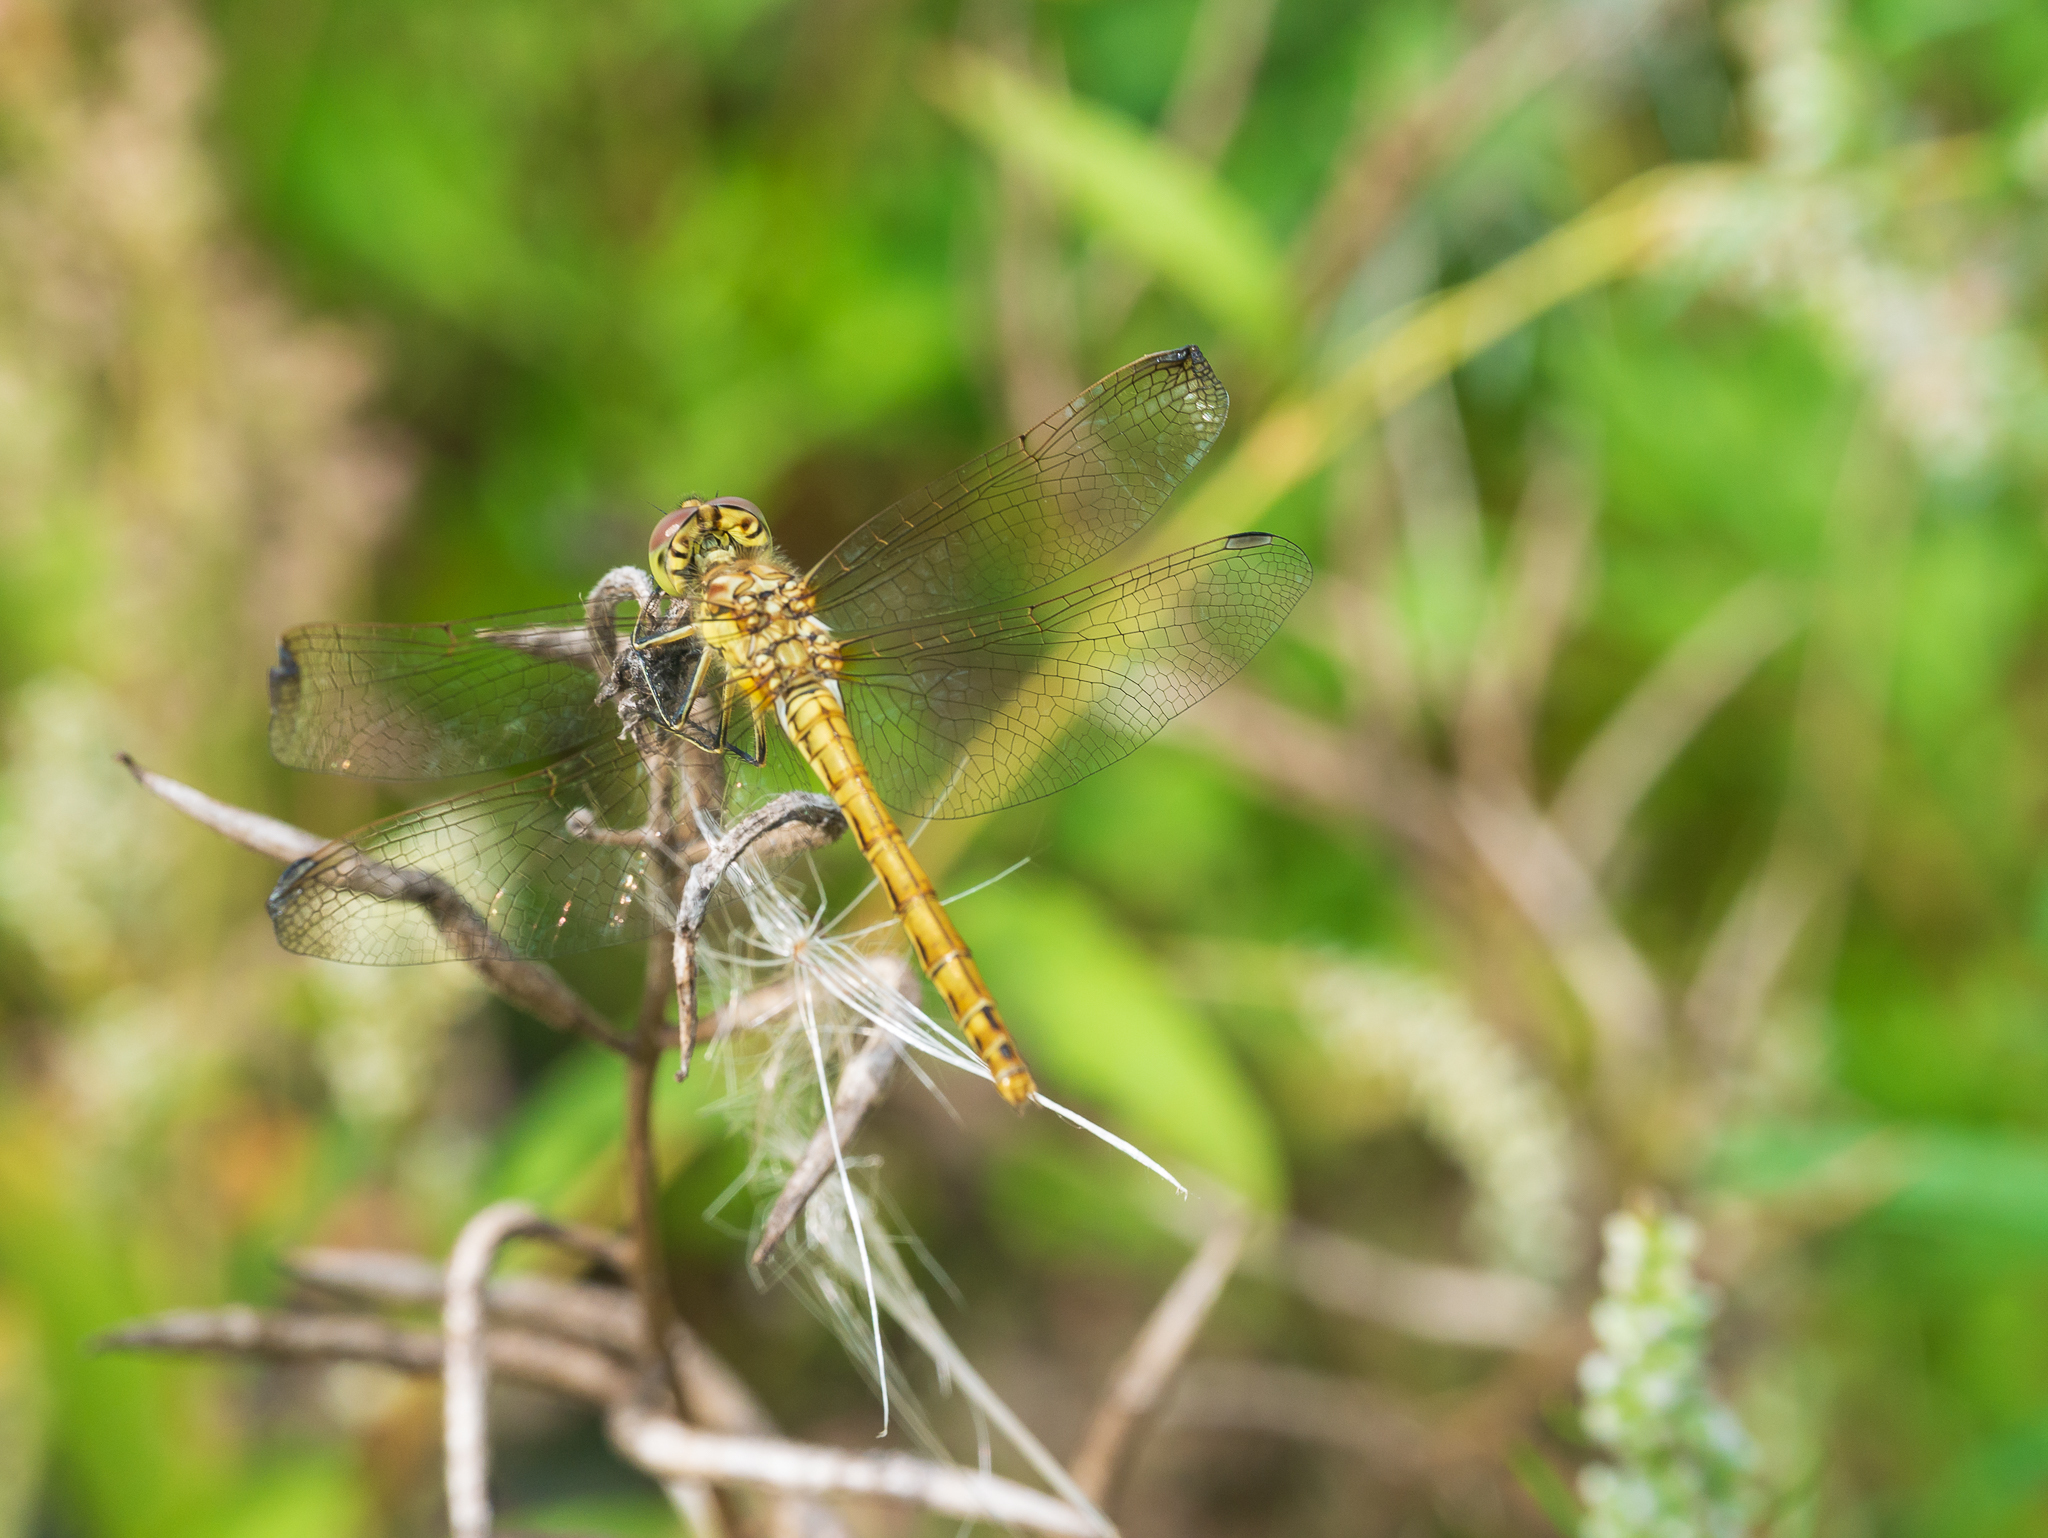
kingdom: Animalia
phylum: Arthropoda
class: Insecta
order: Odonata
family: Libellulidae
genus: Sympetrum
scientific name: Sympetrum vulgatum
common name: Vagrant darter
